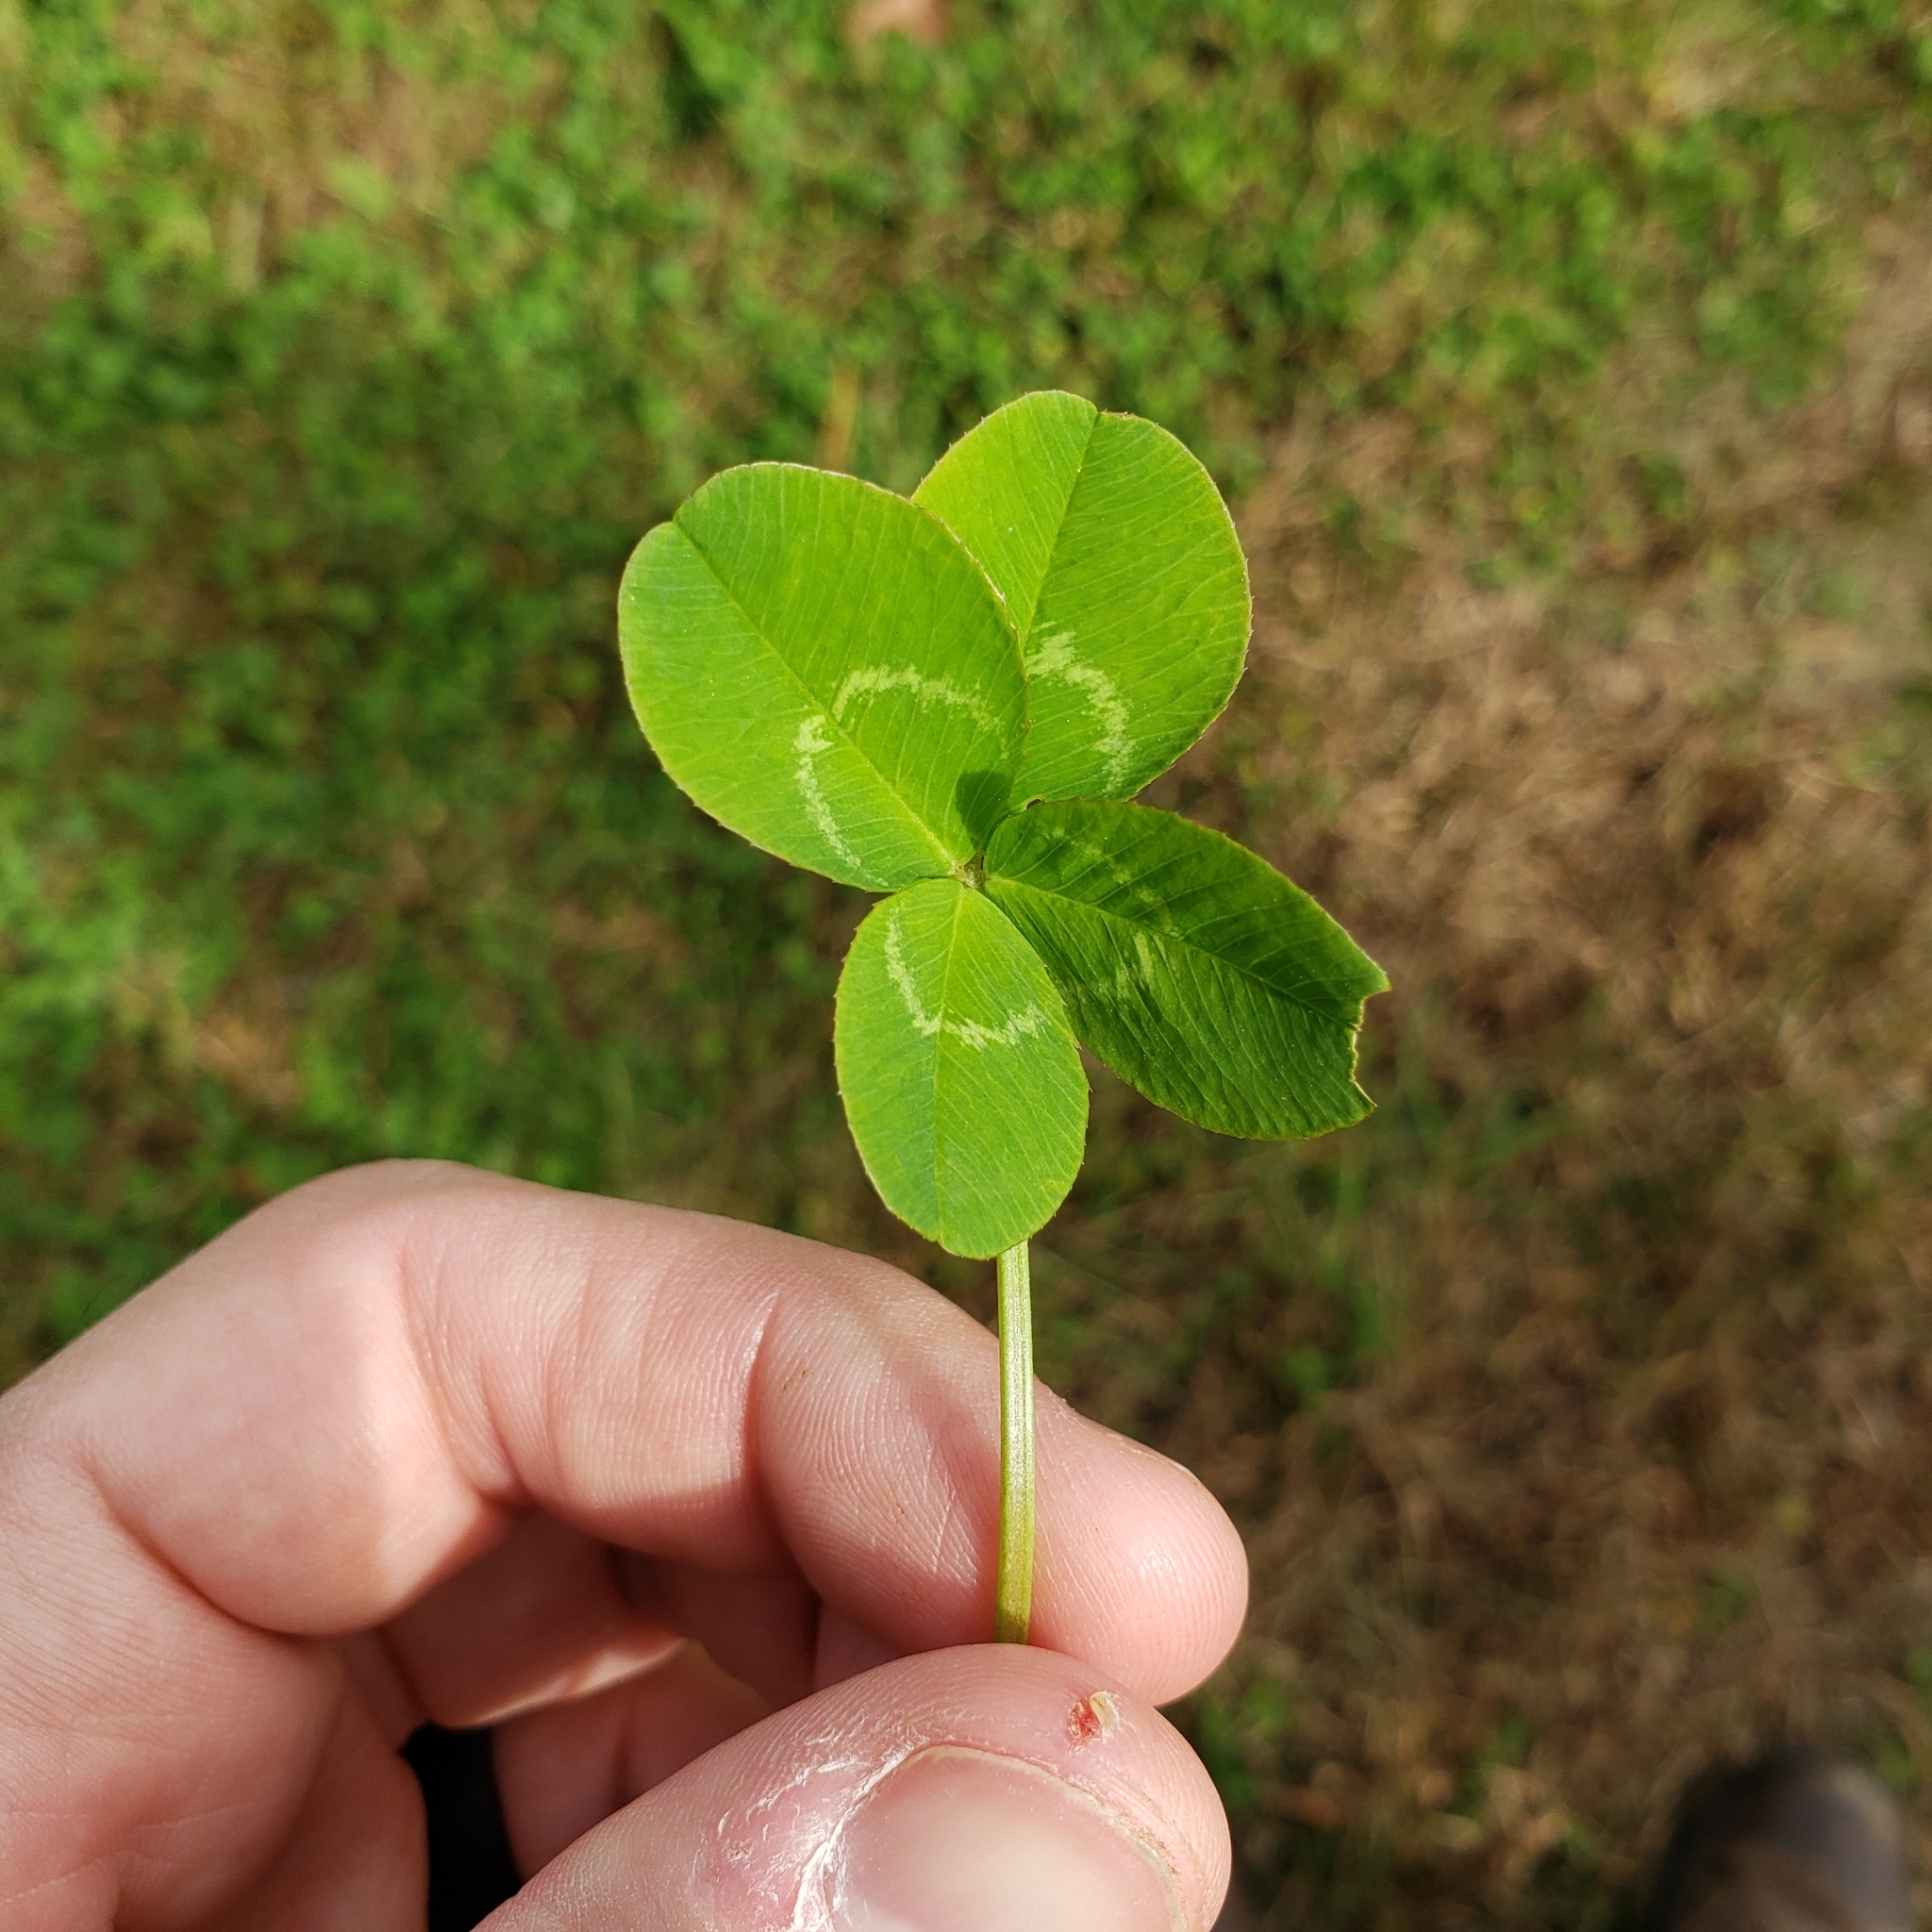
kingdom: Plantae
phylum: Tracheophyta
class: Magnoliopsida
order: Fabales
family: Fabaceae
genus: Trifolium
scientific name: Trifolium repens
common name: White clover
